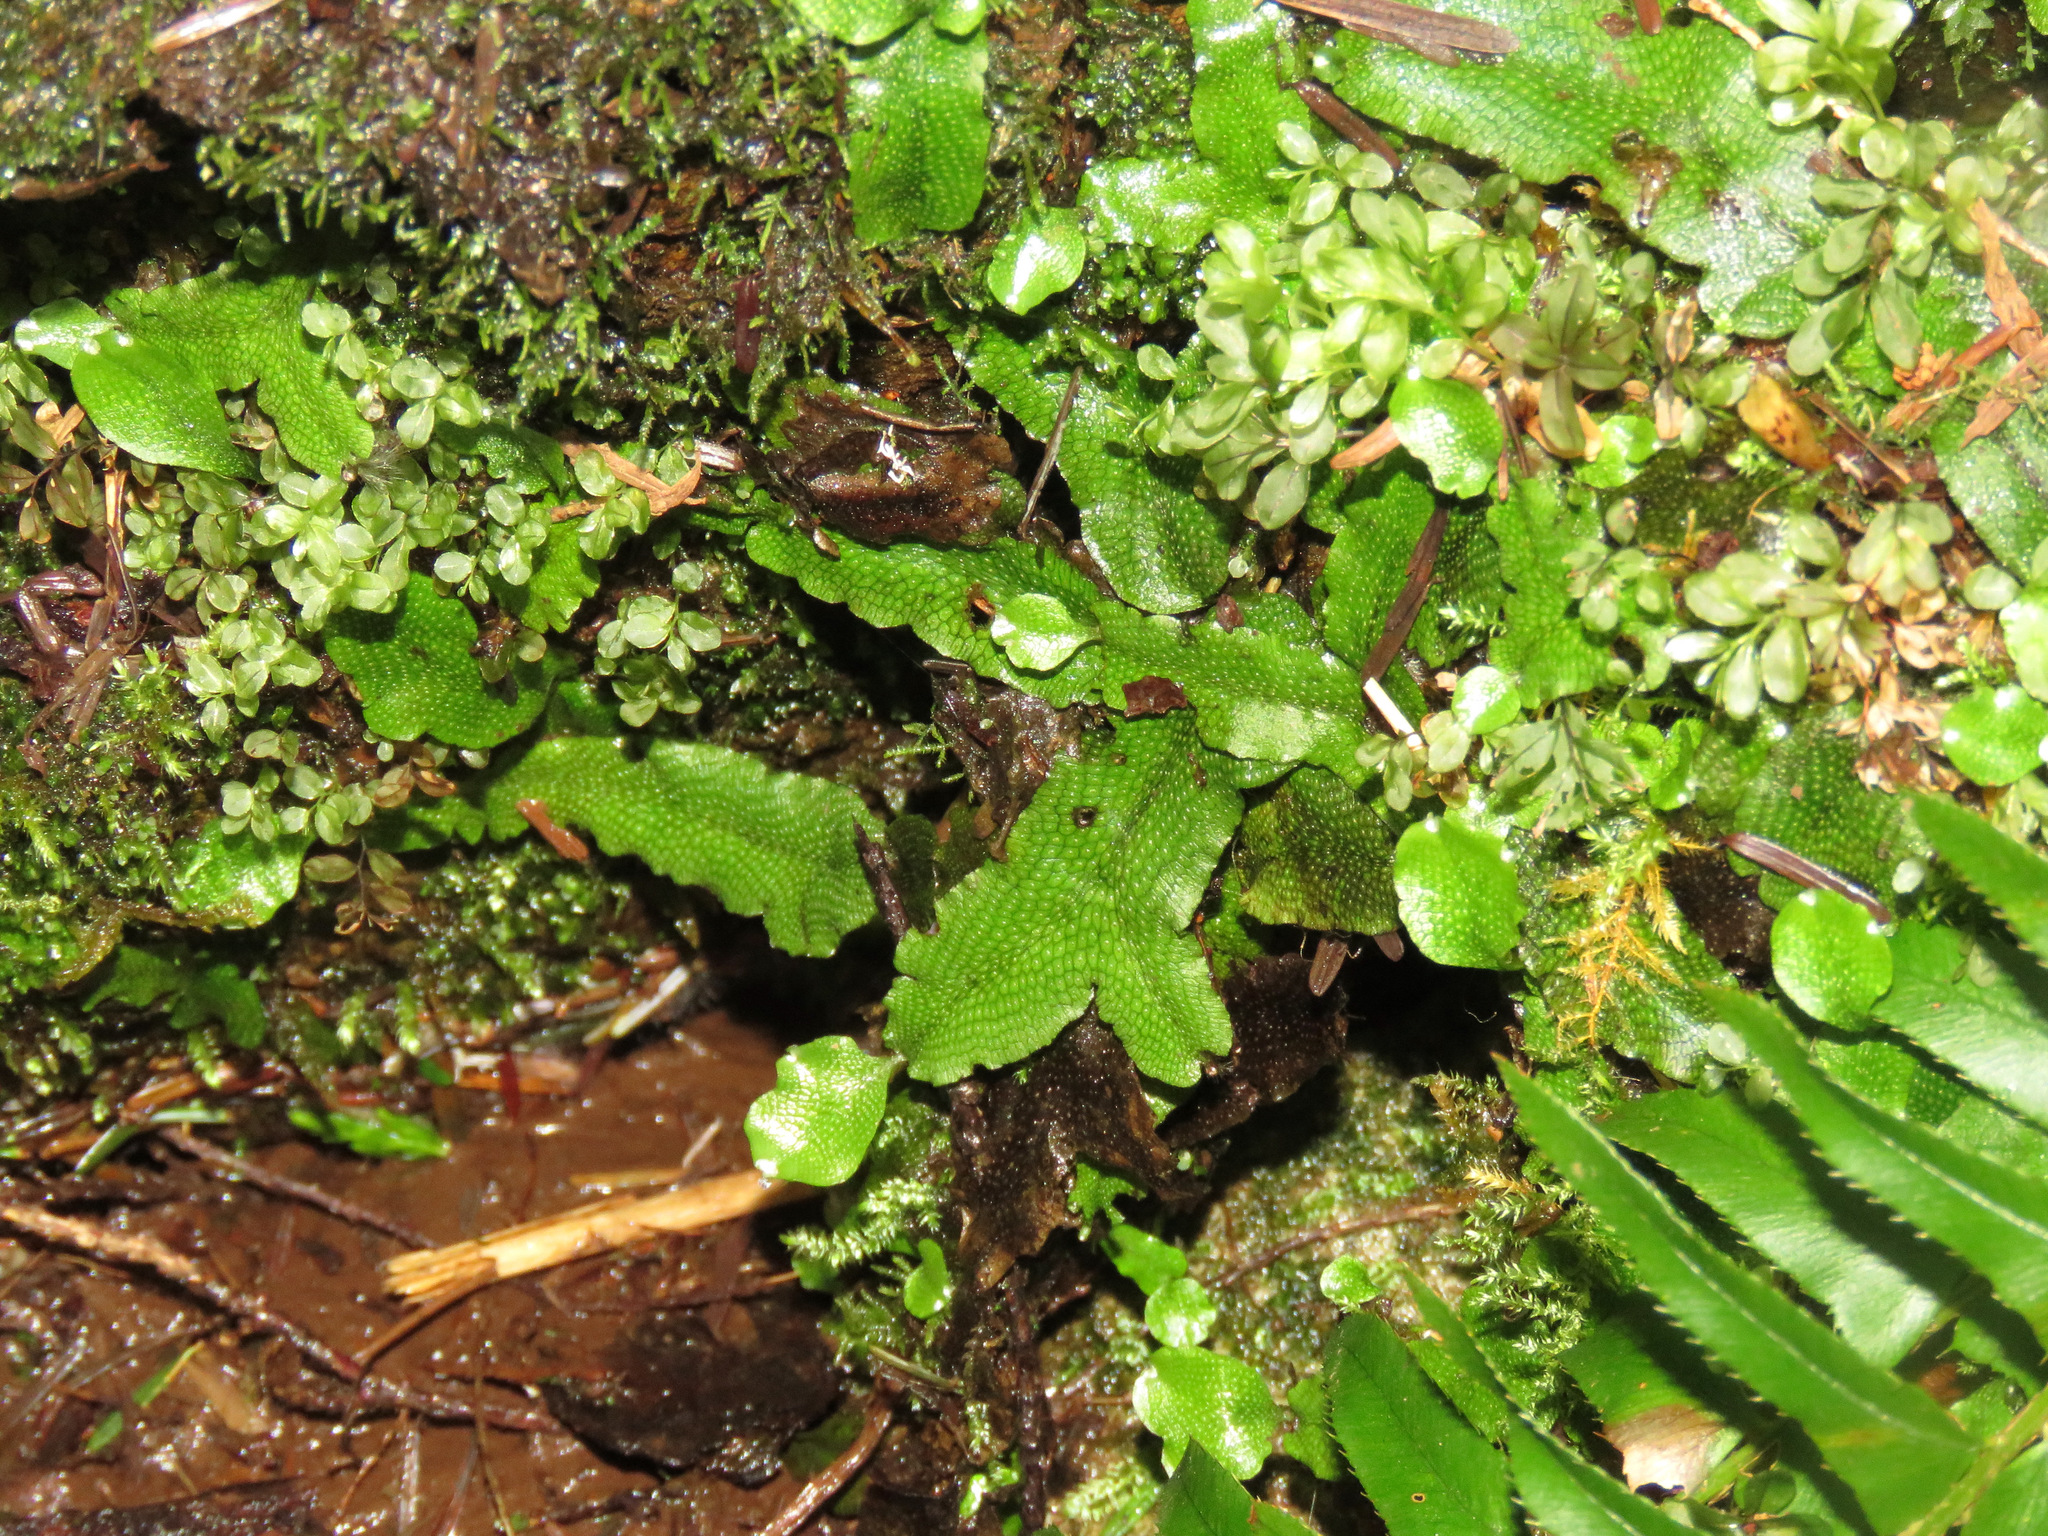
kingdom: Plantae
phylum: Marchantiophyta
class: Marchantiopsida
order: Marchantiales
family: Conocephalaceae
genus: Conocephalum
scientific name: Conocephalum salebrosum
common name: Cat-tongue liverwort
